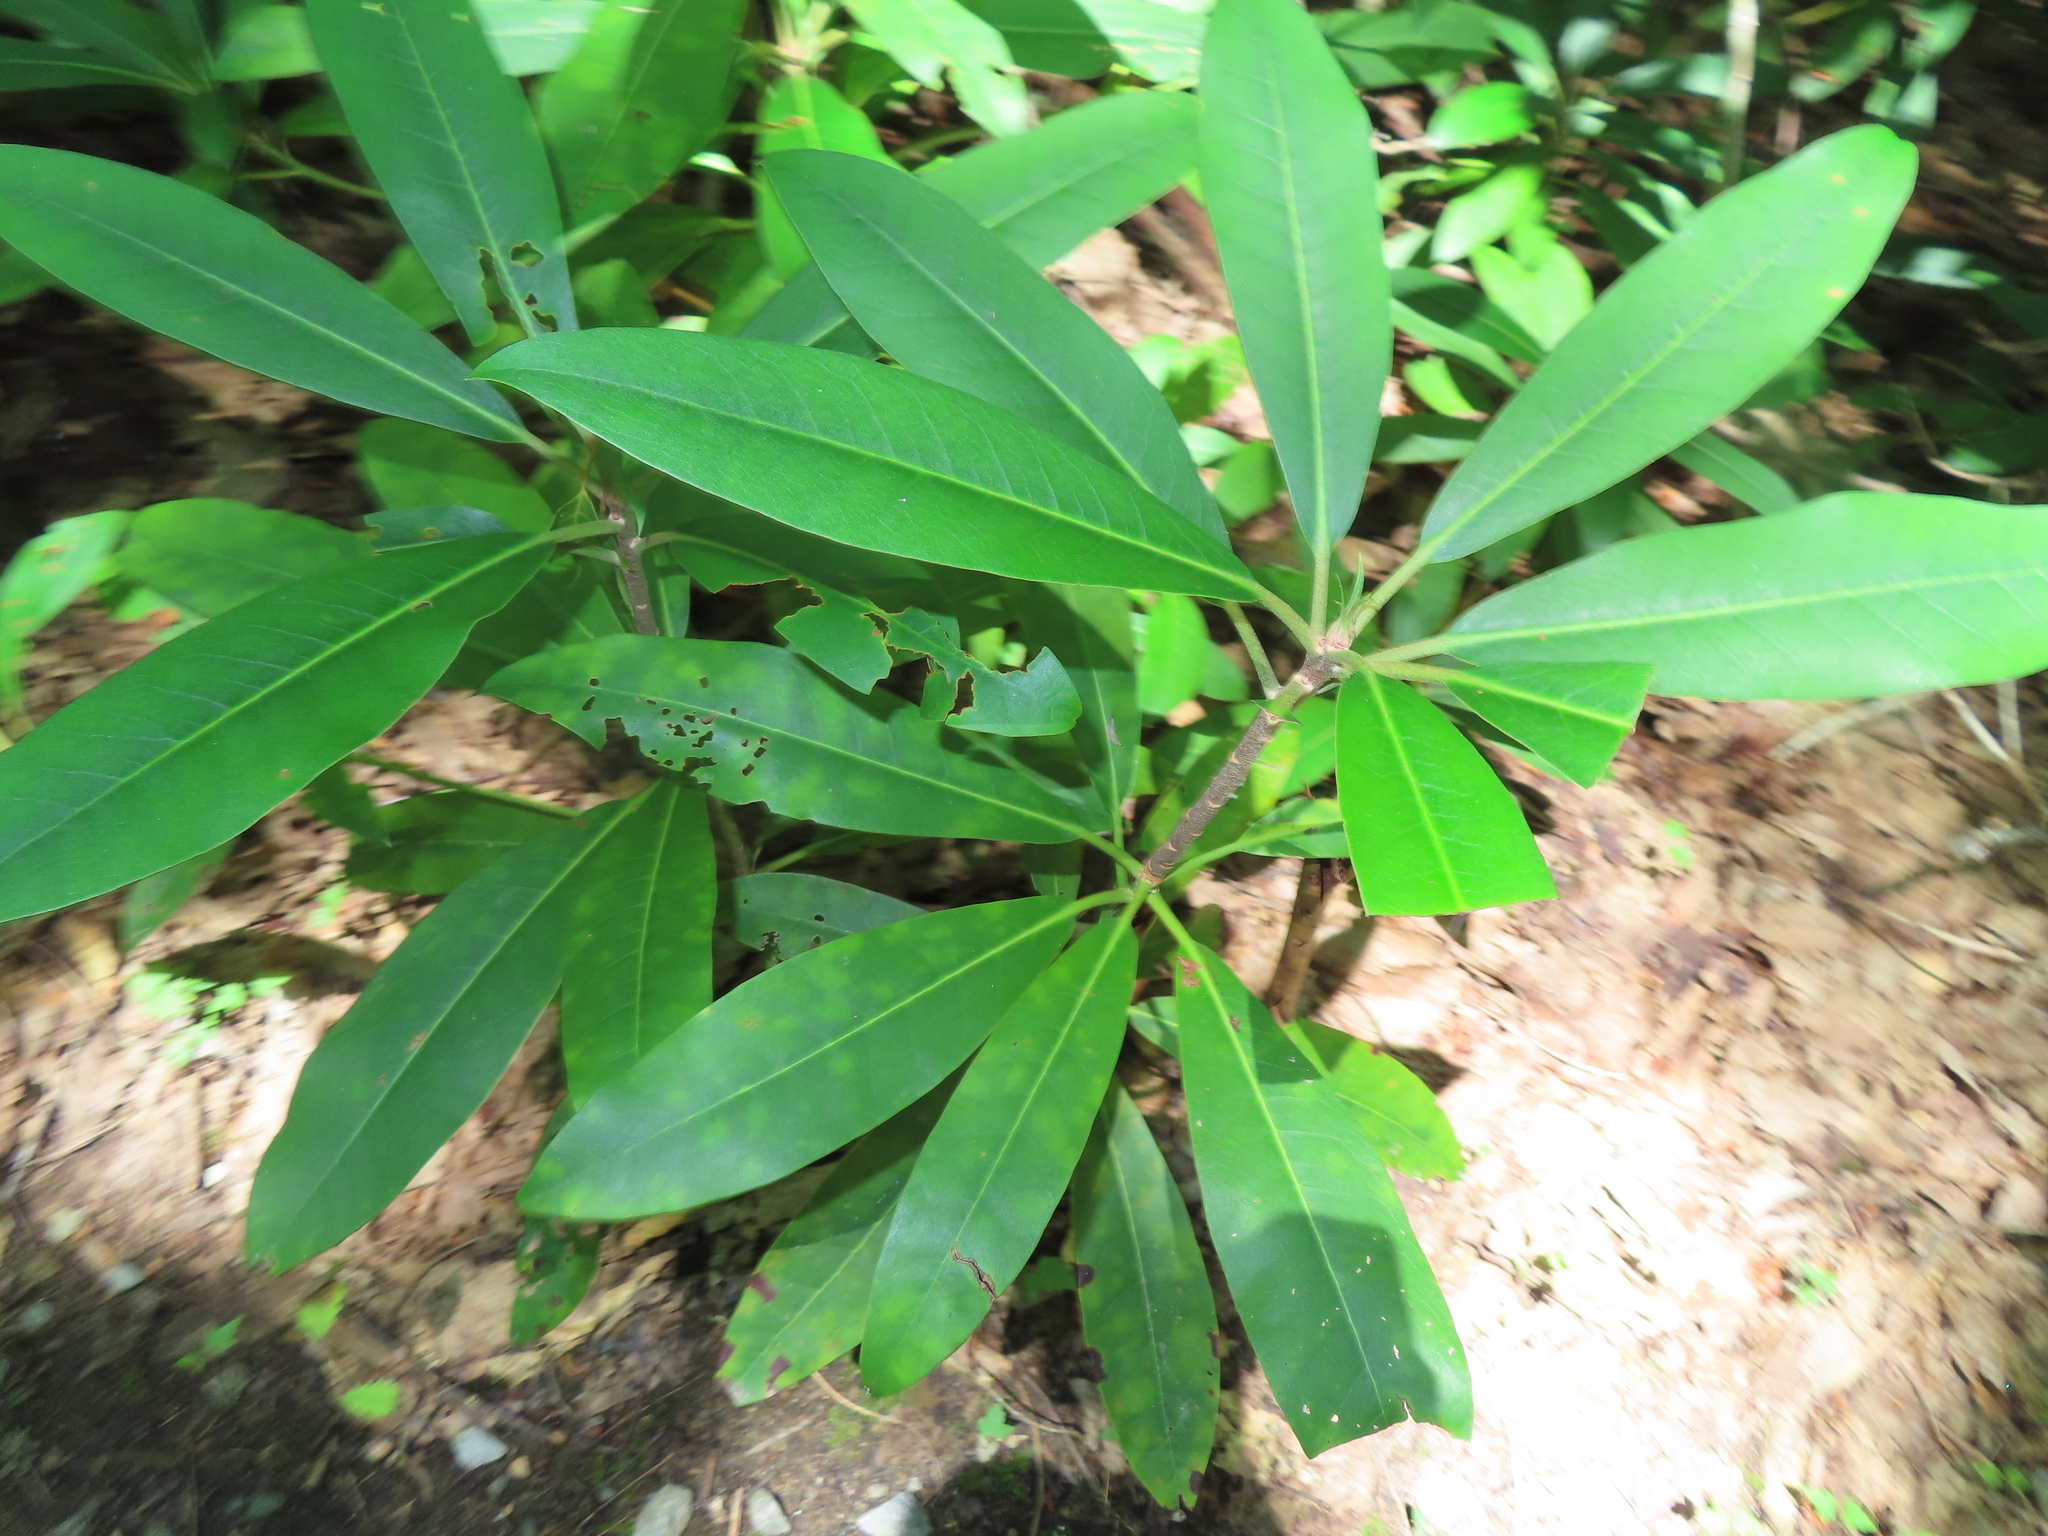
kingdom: Plantae
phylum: Tracheophyta
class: Magnoliopsida
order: Ericales
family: Ericaceae
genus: Rhododendron
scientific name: Rhododendron maximum
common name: Great rhododendron
